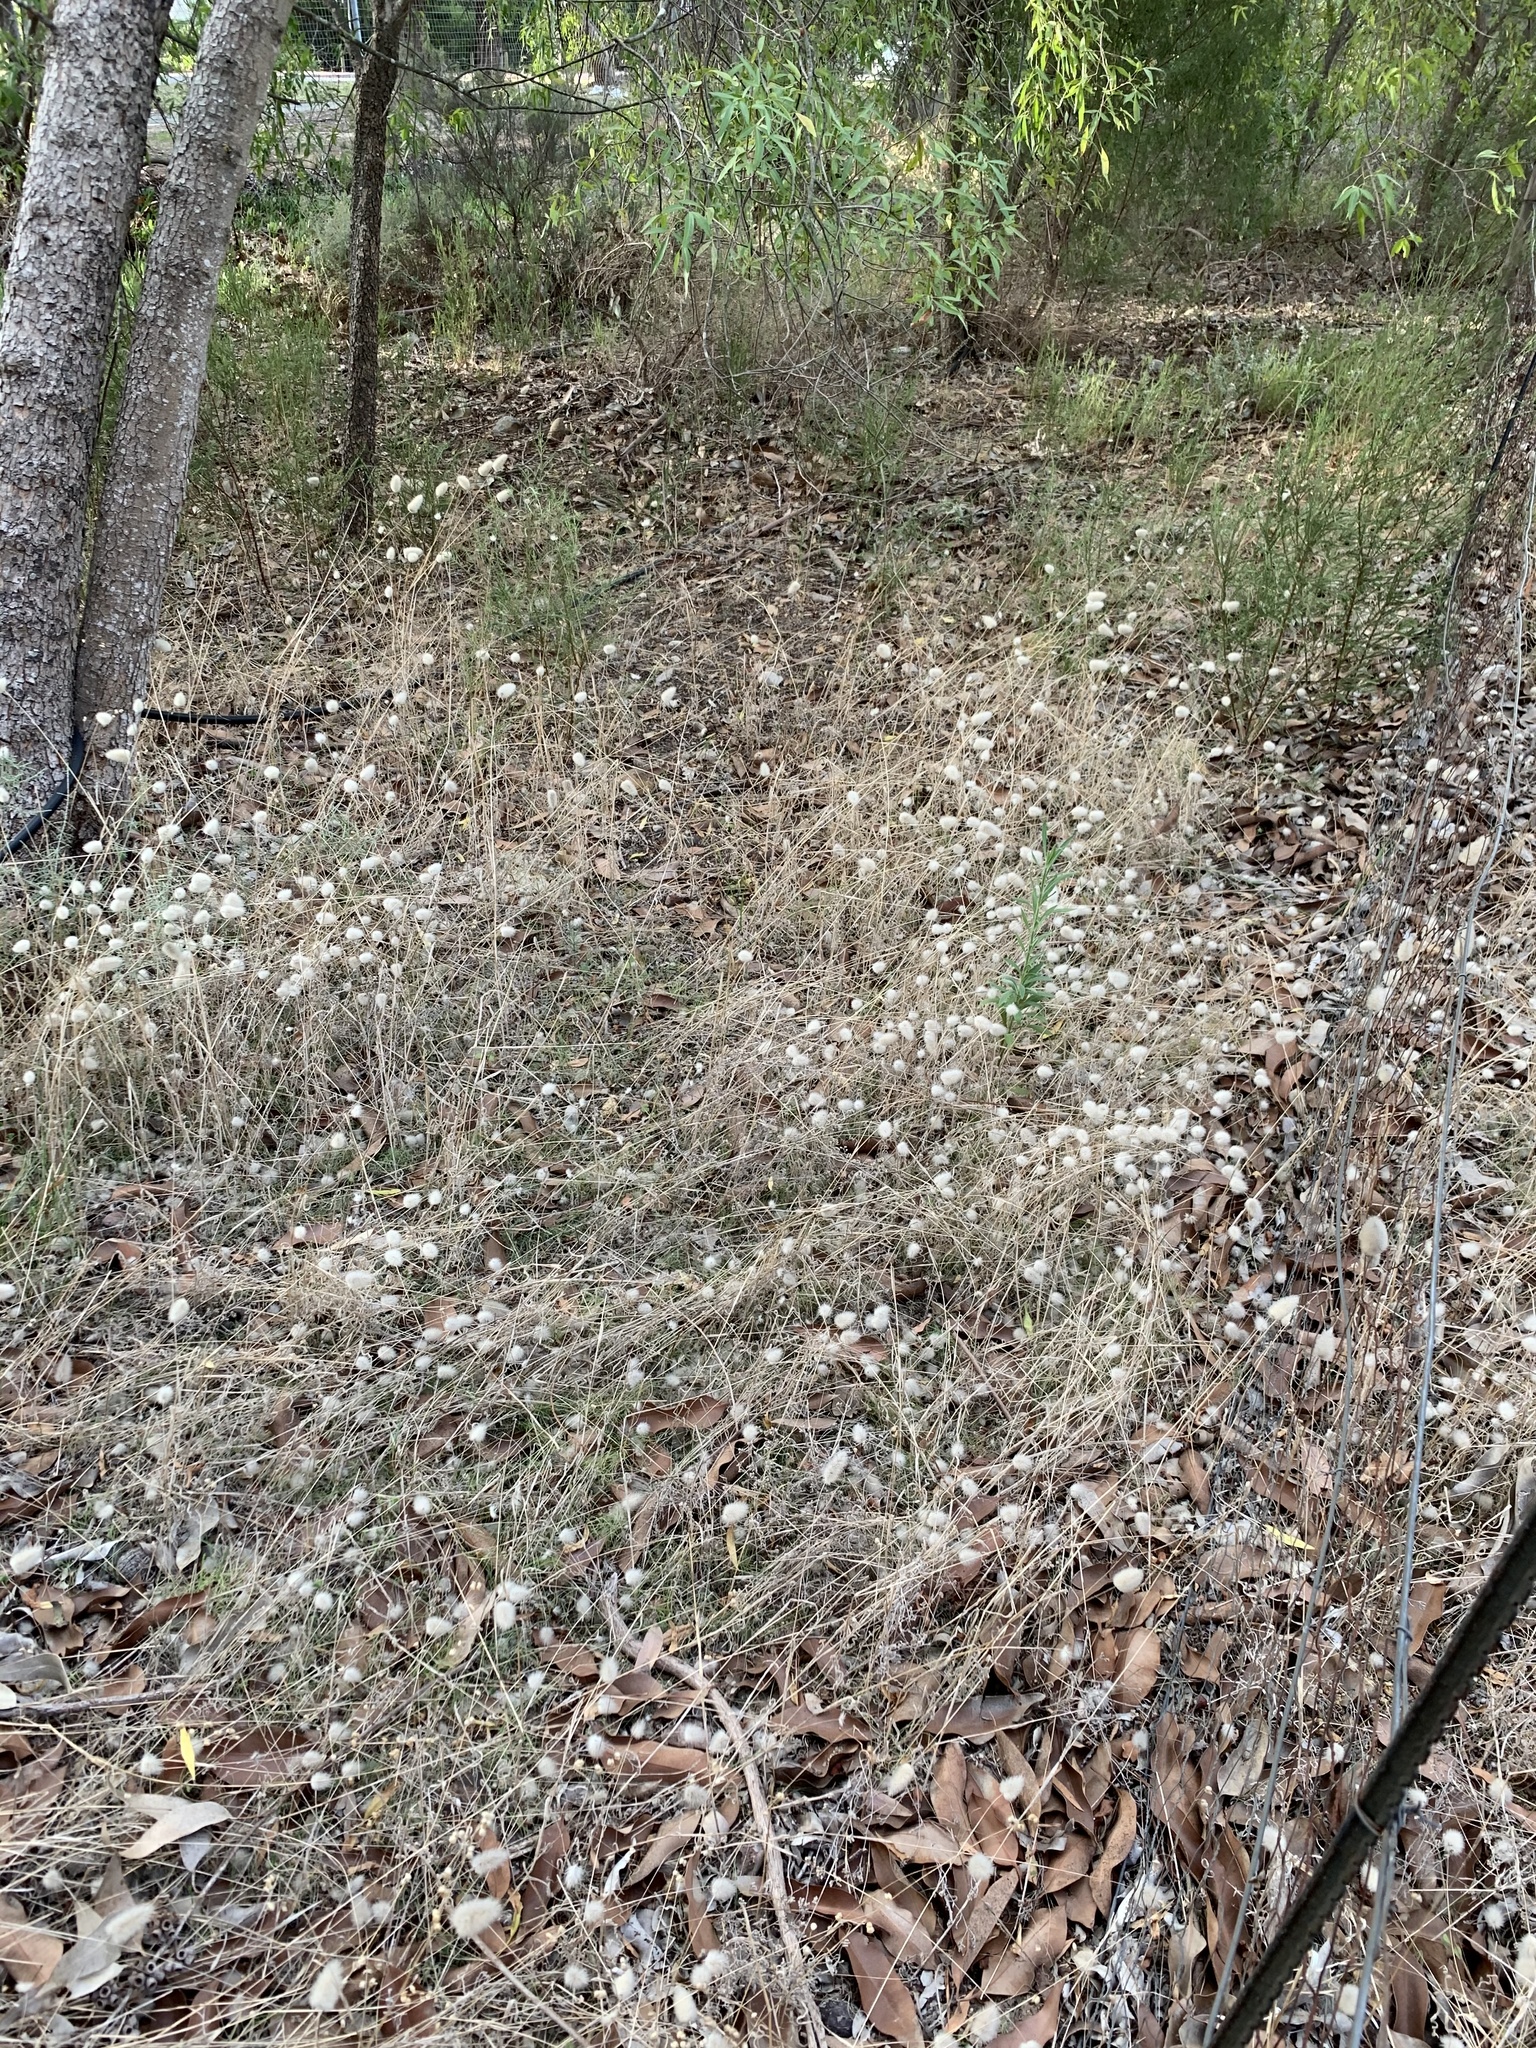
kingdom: Plantae
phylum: Tracheophyta
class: Liliopsida
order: Poales
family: Poaceae
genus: Lagurus
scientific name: Lagurus ovatus
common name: Hare's-tail
